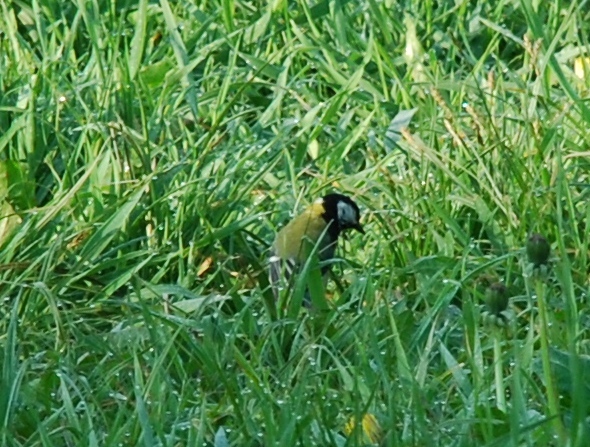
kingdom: Animalia
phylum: Chordata
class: Aves
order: Passeriformes
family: Paridae
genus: Parus
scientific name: Parus major
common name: Great tit
